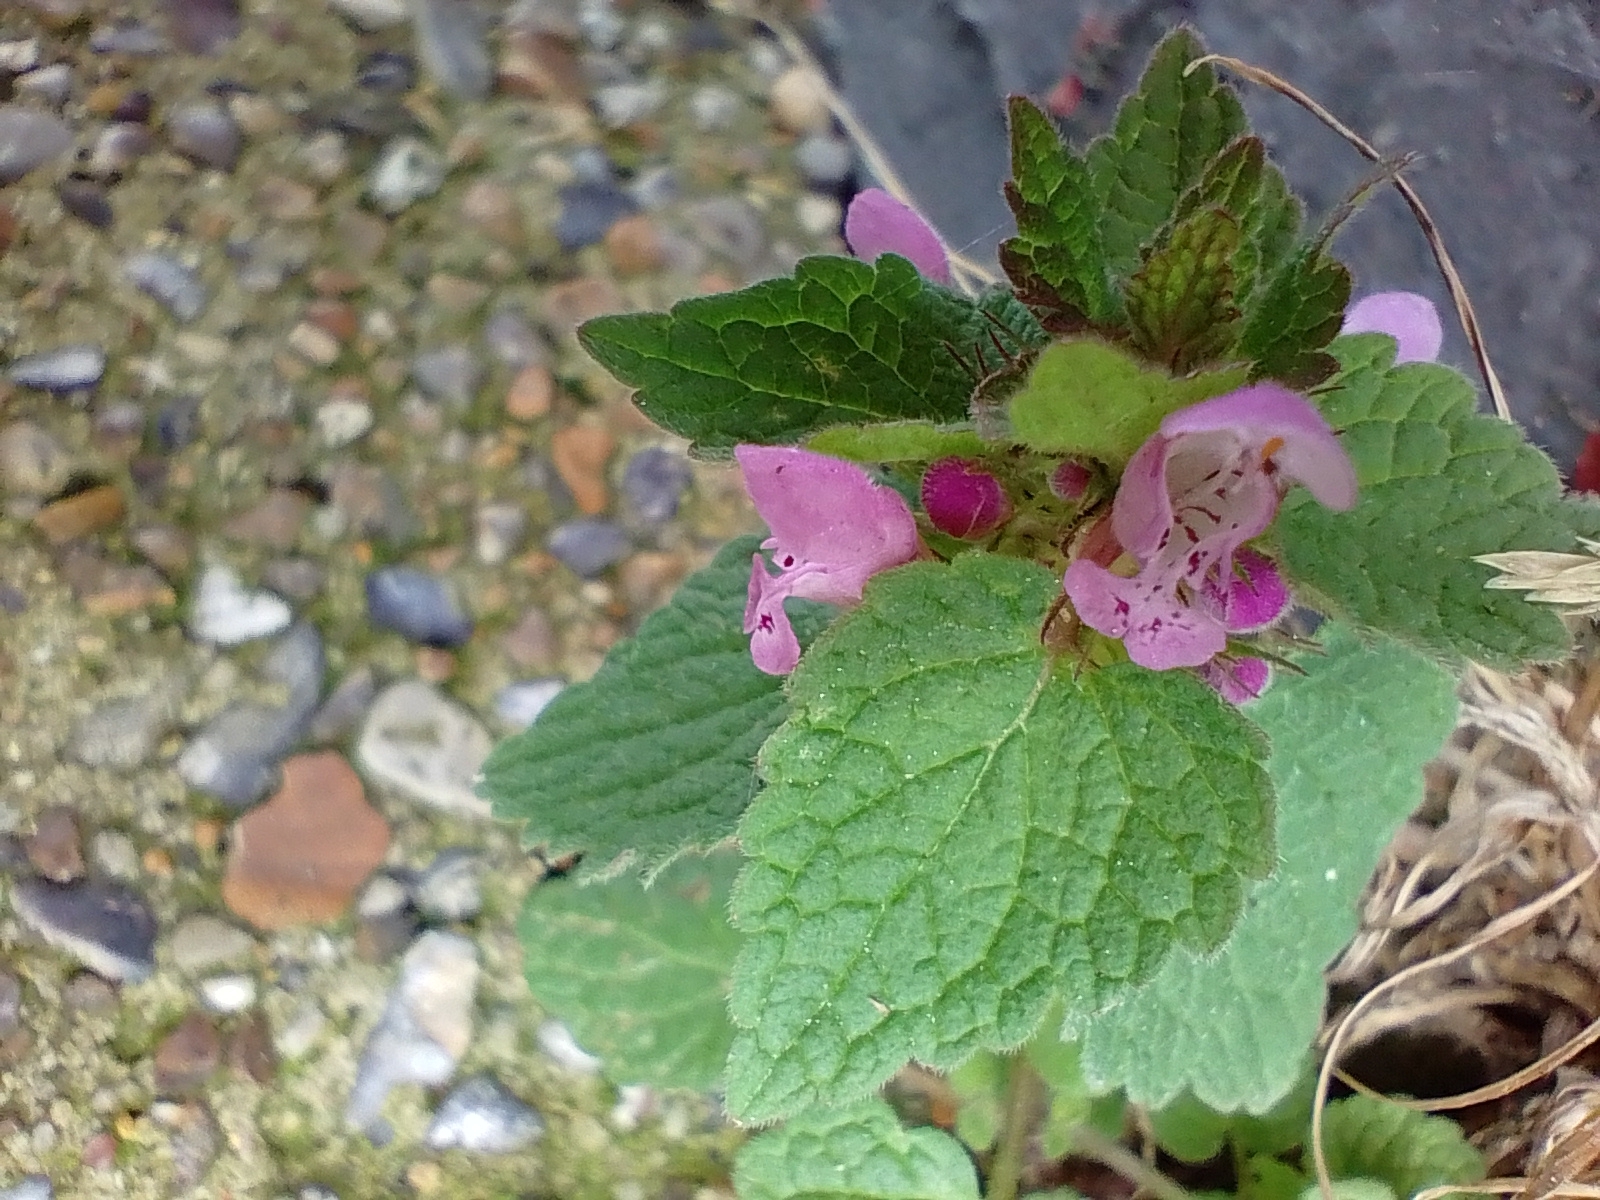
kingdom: Plantae
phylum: Tracheophyta
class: Magnoliopsida
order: Lamiales
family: Lamiaceae
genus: Lamium
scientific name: Lamium purpureum
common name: Red dead-nettle
